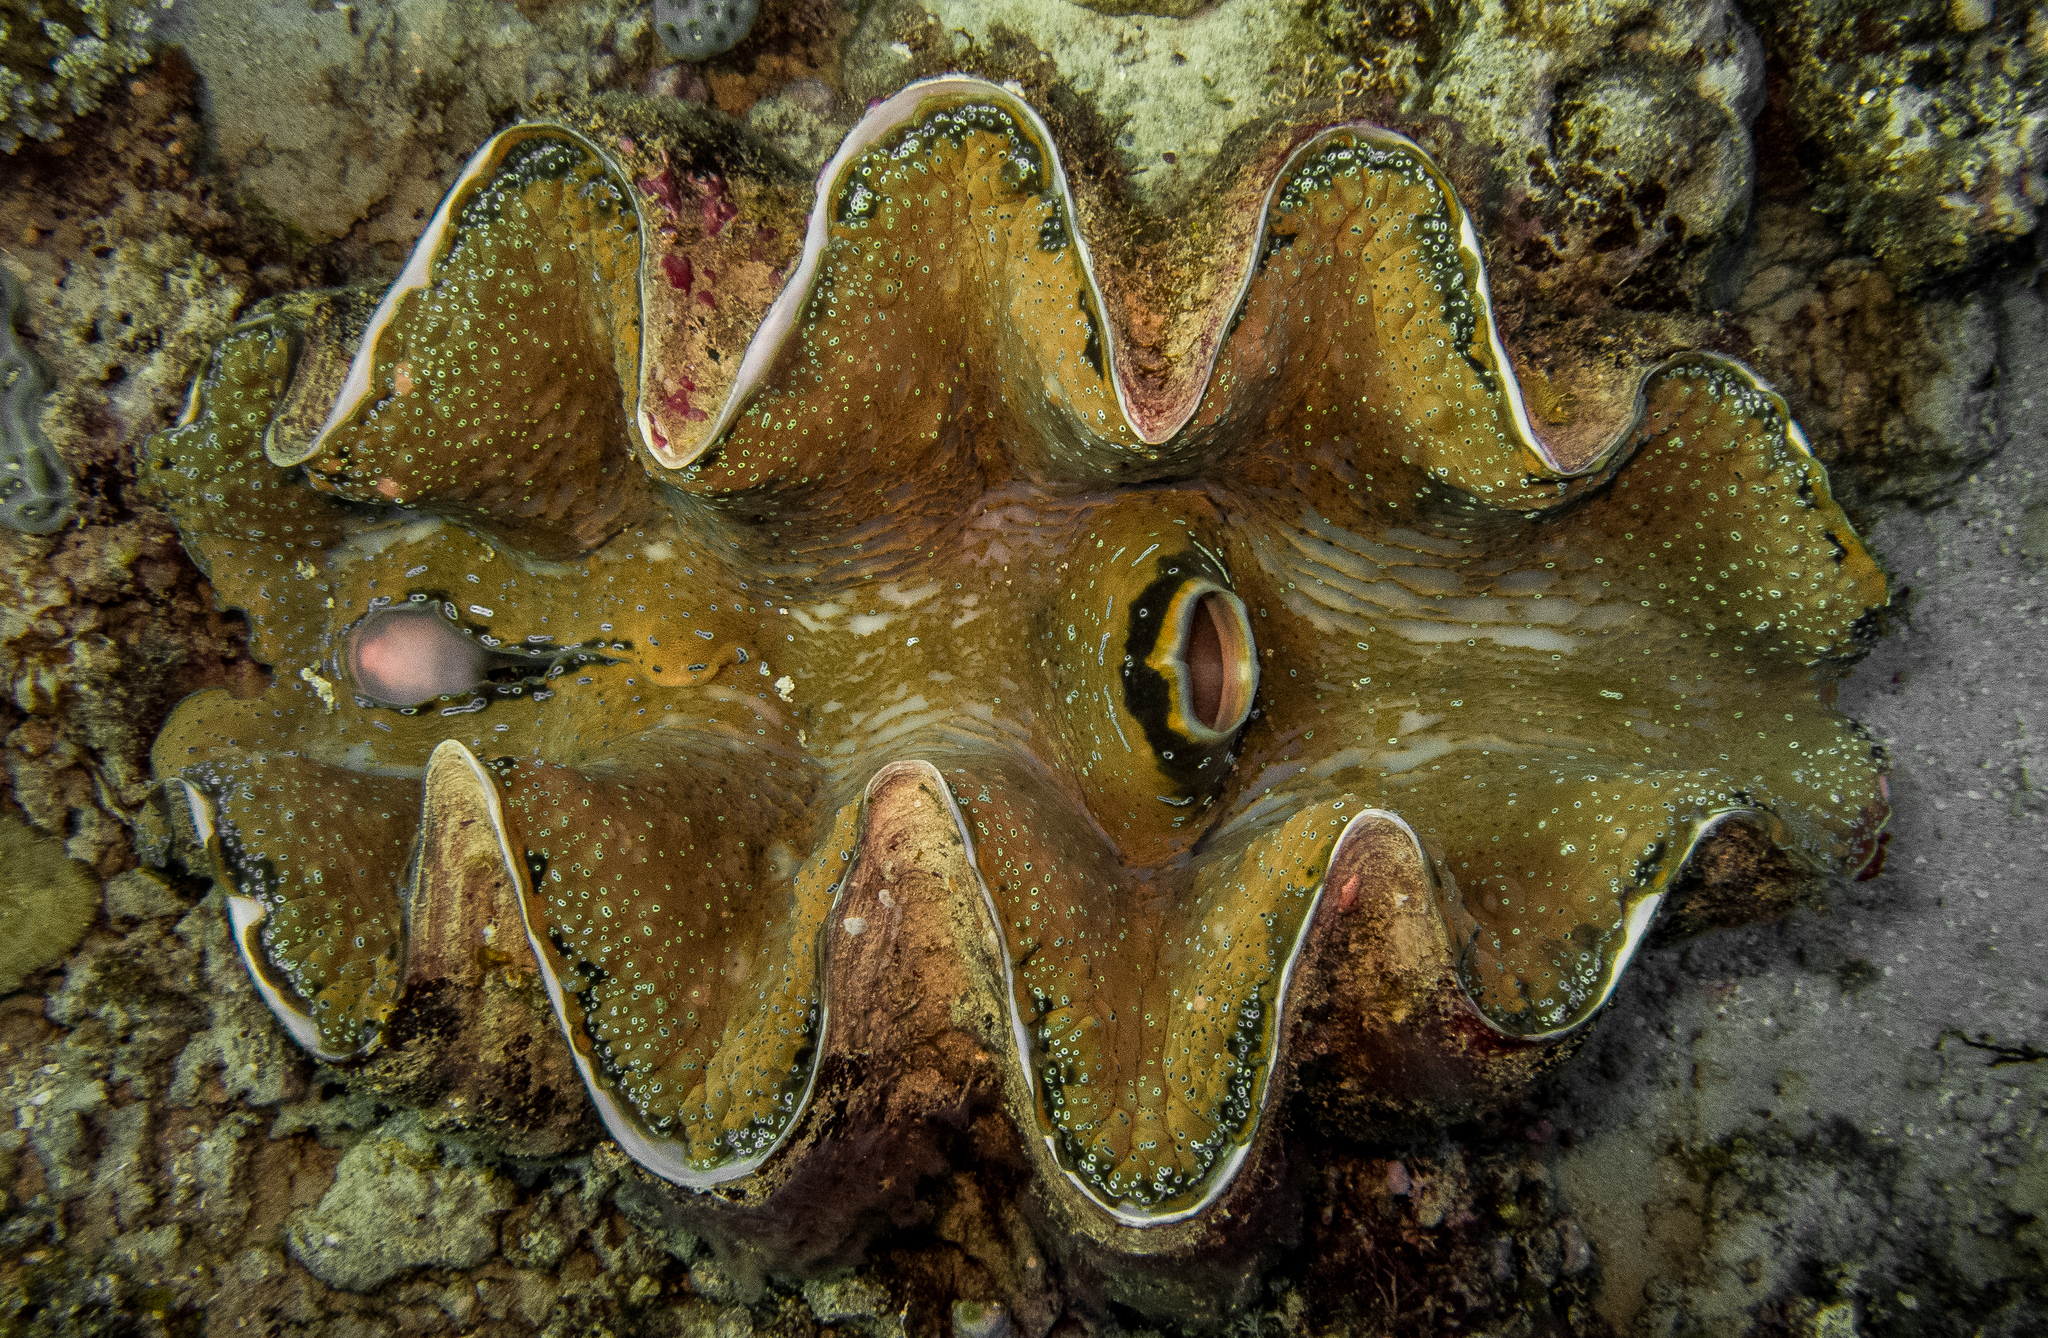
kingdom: Animalia
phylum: Mollusca
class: Bivalvia
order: Cardiida
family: Cardiidae
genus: Tridacna
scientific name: Tridacna gigas
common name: Giant clam
